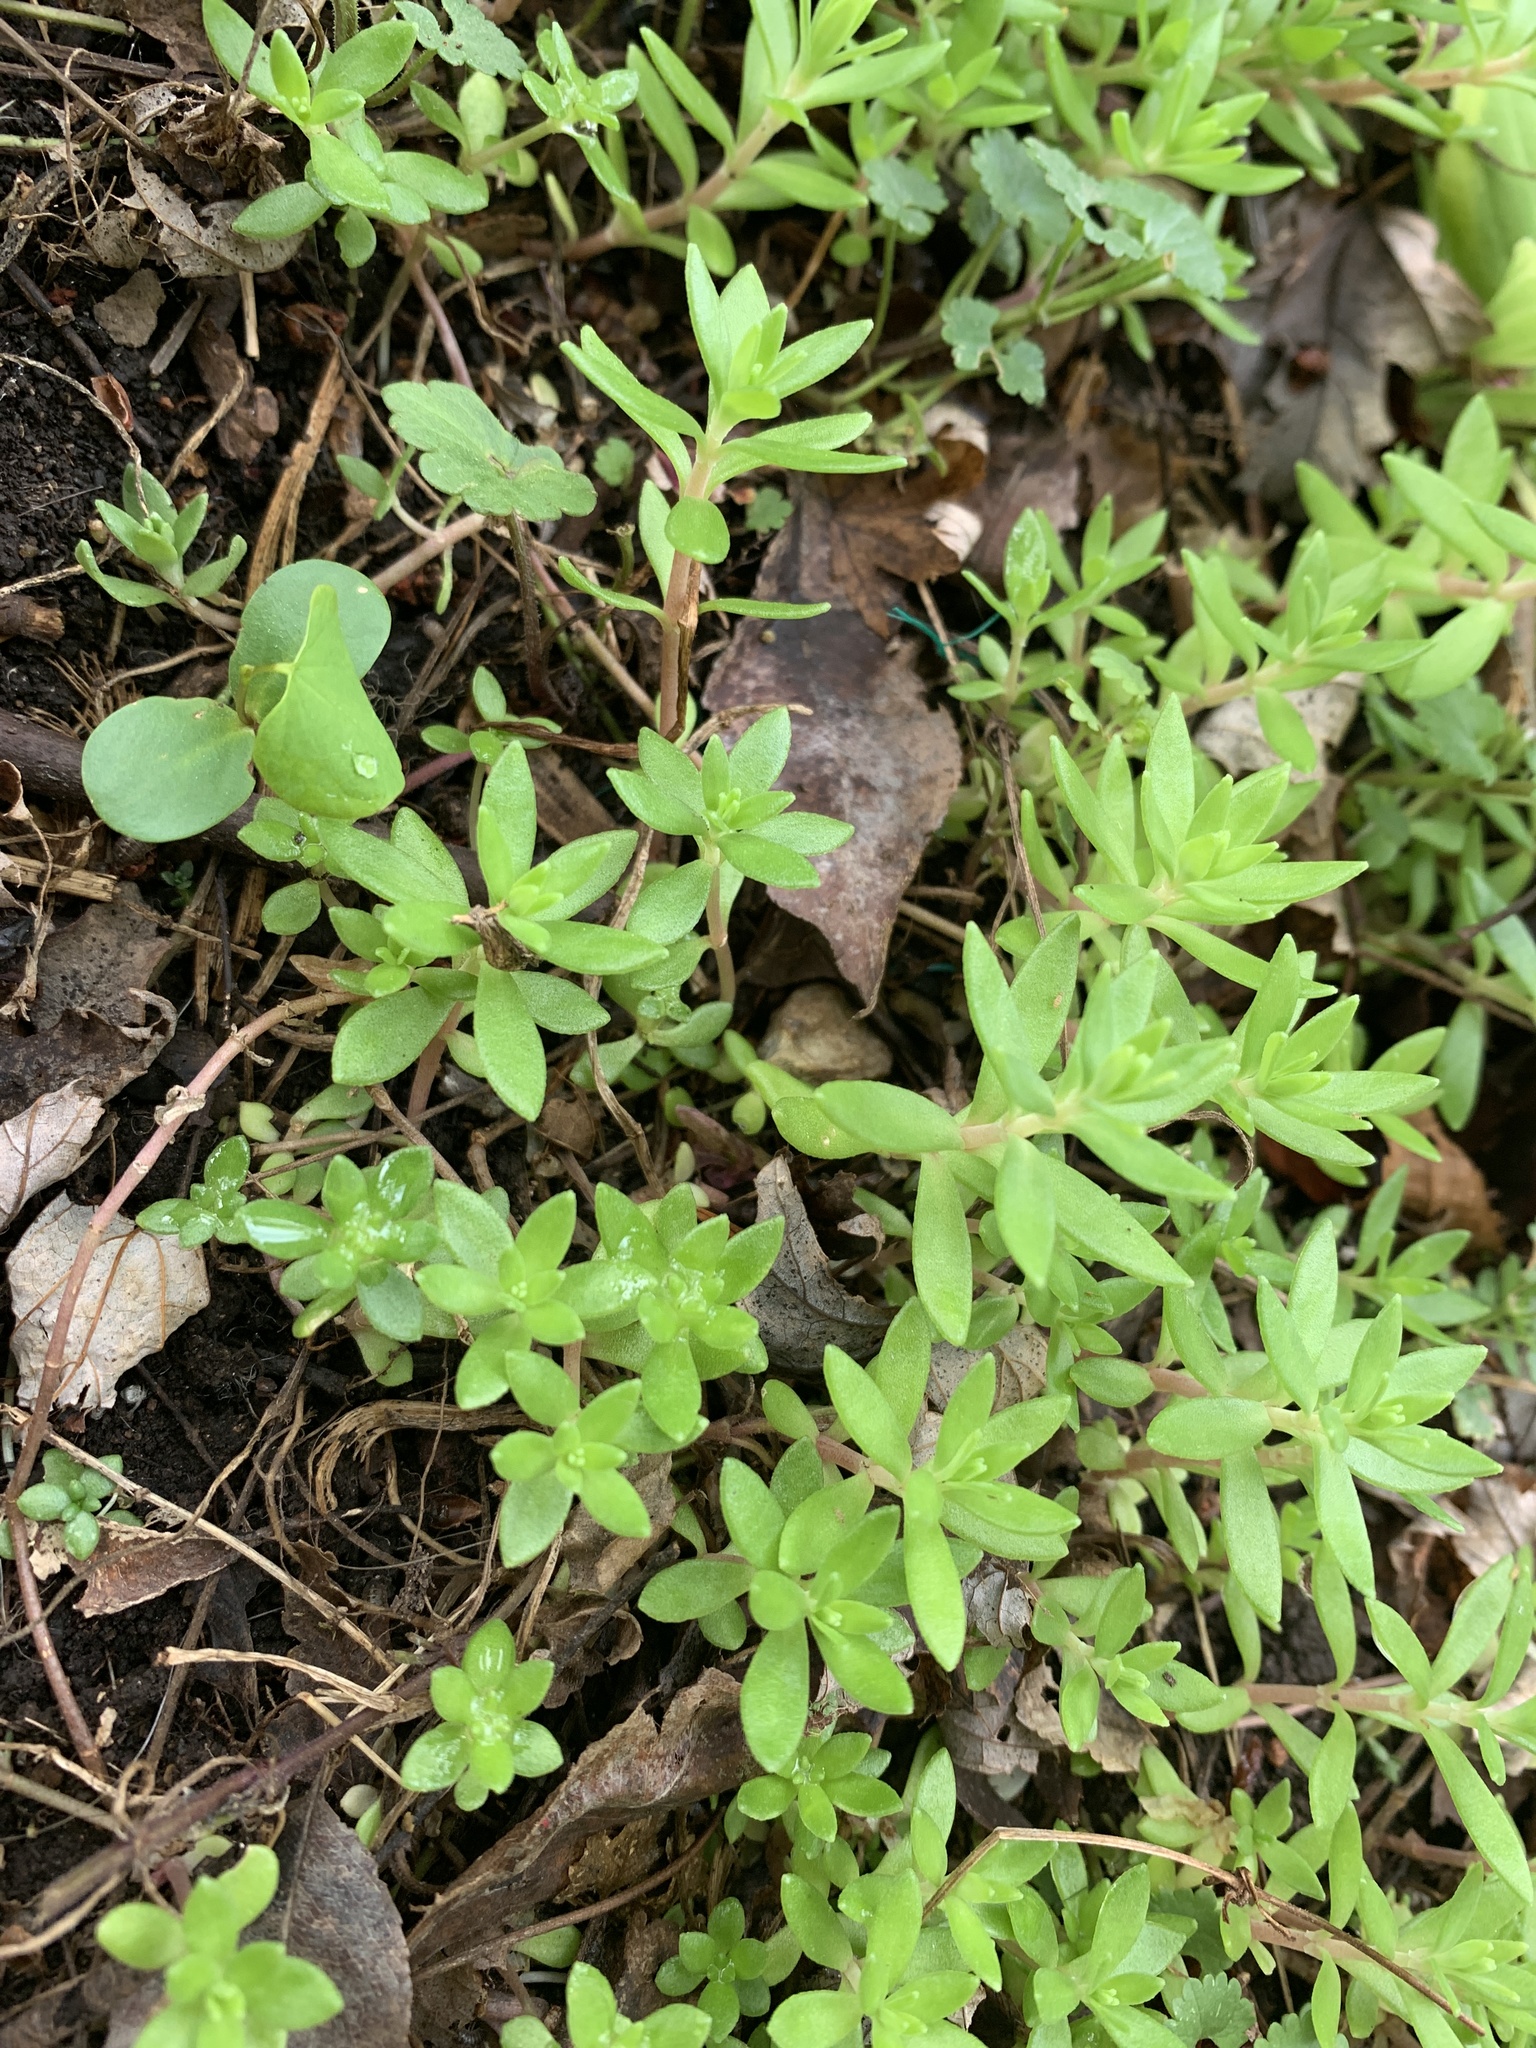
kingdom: Plantae
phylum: Tracheophyta
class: Magnoliopsida
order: Saxifragales
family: Crassulaceae
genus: Sedum
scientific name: Sedum sarmentosum
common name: Stringy stonecrop
